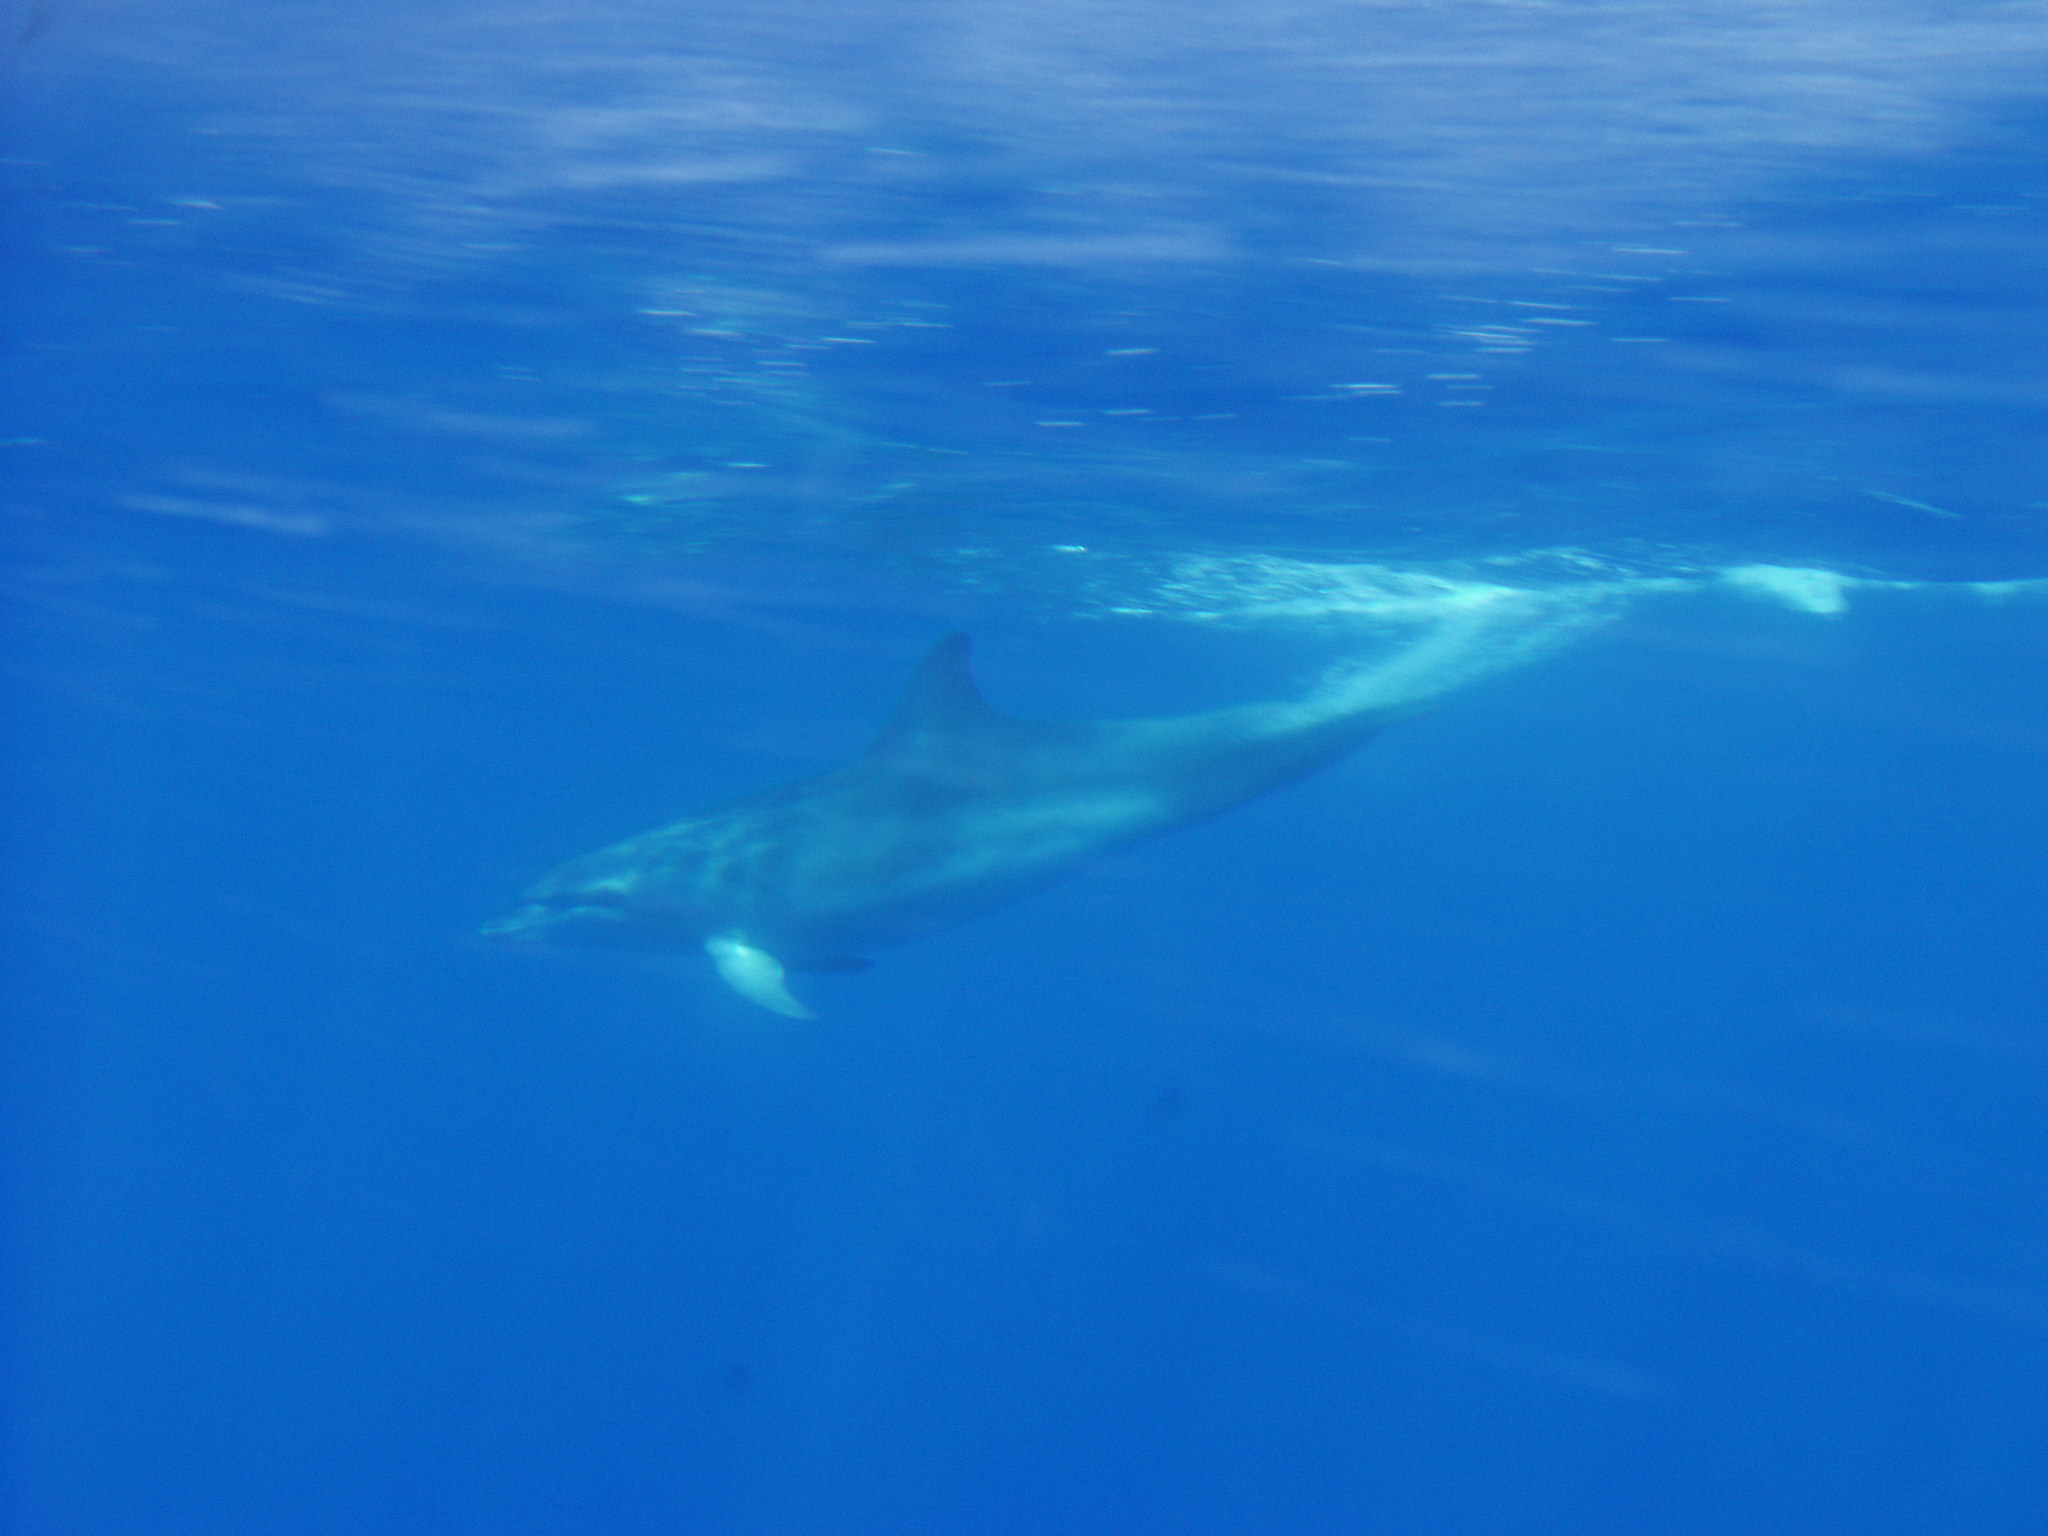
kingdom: Animalia
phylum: Chordata
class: Mammalia
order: Cetacea
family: Delphinidae
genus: Tursiops
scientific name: Tursiops truncatus
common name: Bottlenose dolphin
